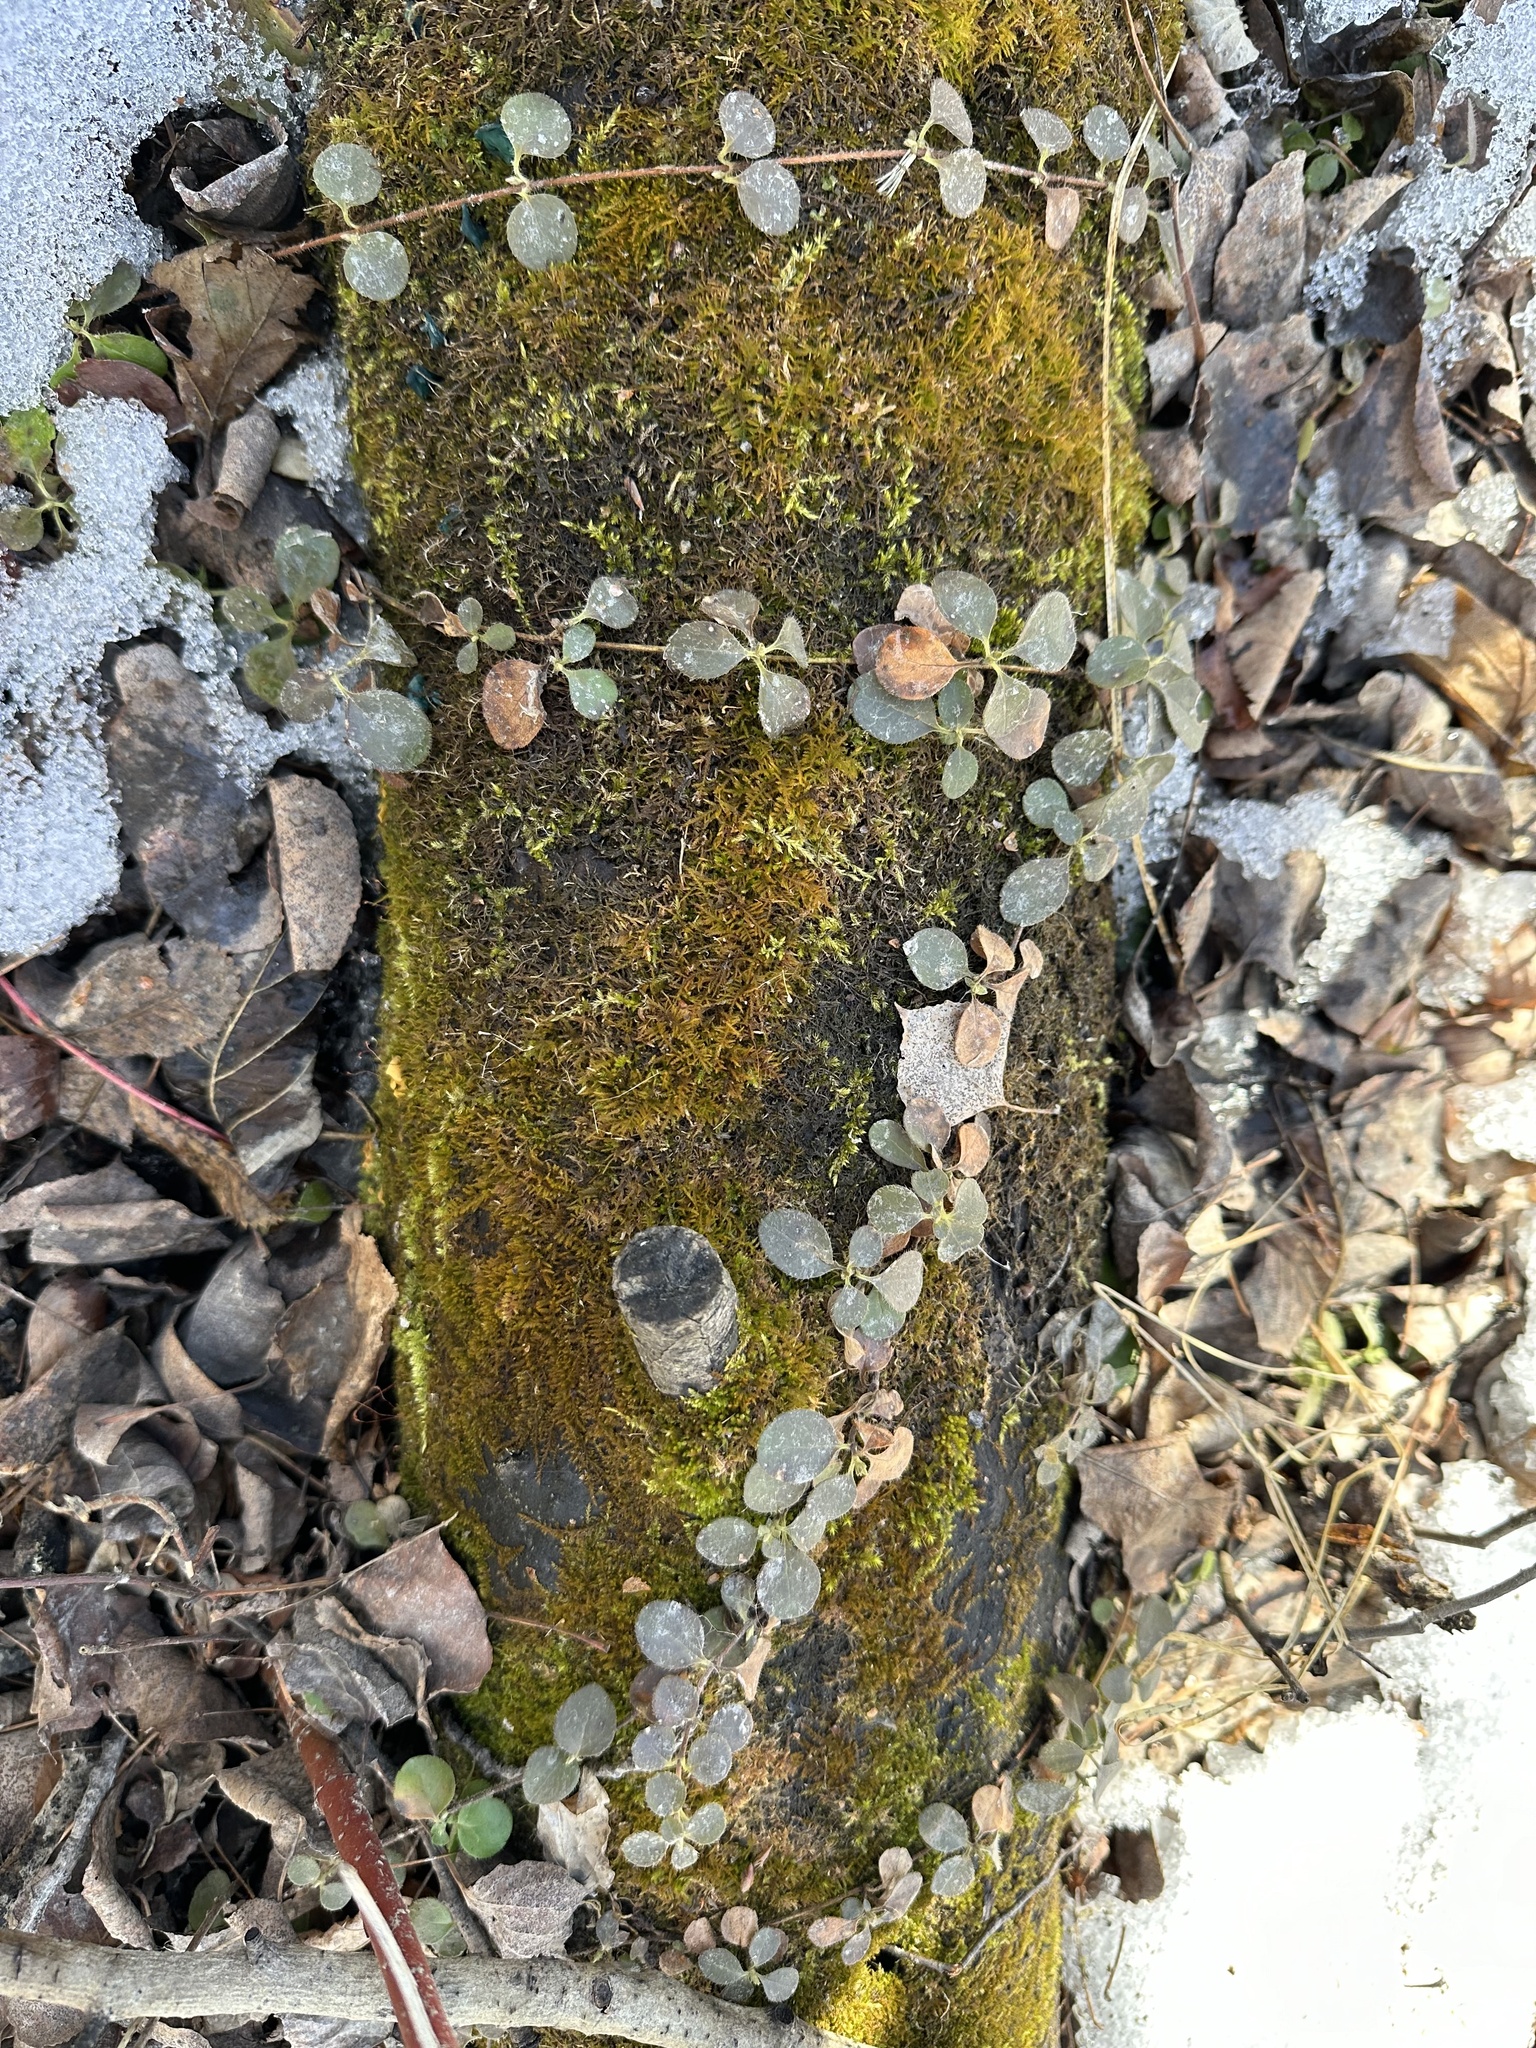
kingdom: Plantae
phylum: Tracheophyta
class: Magnoliopsida
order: Dipsacales
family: Caprifoliaceae
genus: Linnaea
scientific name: Linnaea borealis
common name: Twinflower
